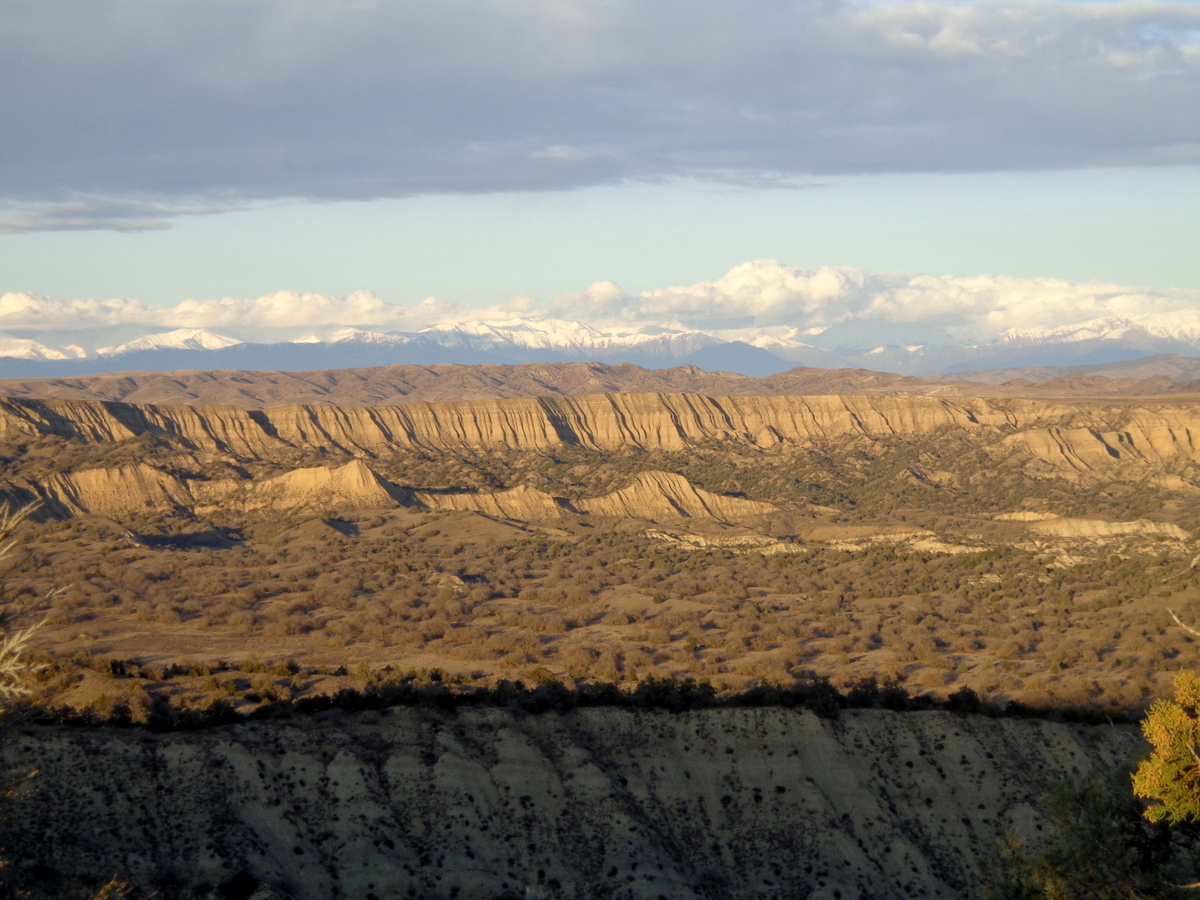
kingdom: Plantae
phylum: Tracheophyta
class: Pinopsida
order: Pinales
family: Cupressaceae
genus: Juniperus
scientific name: Juniperus excelsa
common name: Crimean juniper
